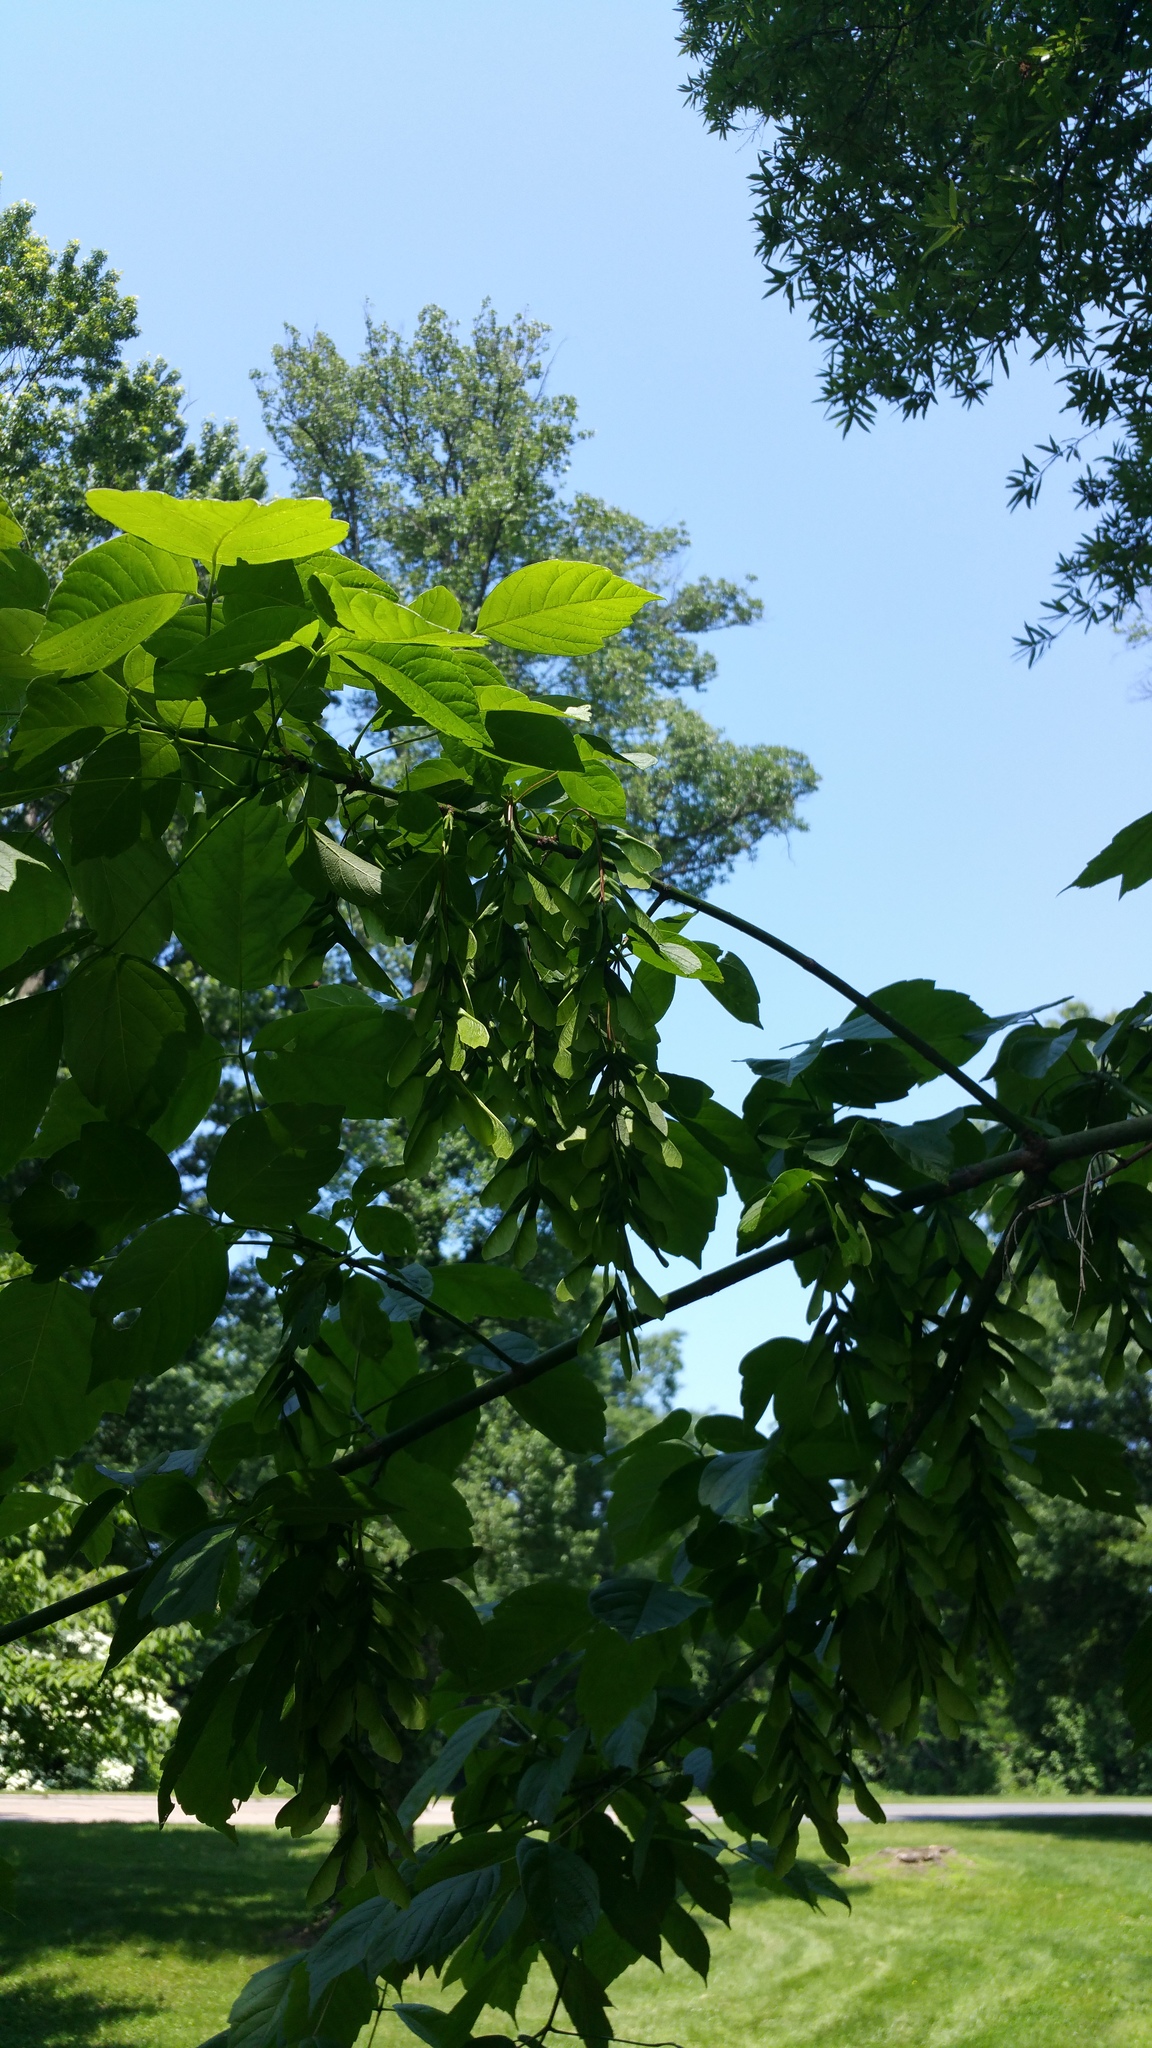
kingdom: Plantae
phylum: Tracheophyta
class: Magnoliopsida
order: Sapindales
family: Sapindaceae
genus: Acer
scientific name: Acer negundo
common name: Ashleaf maple
